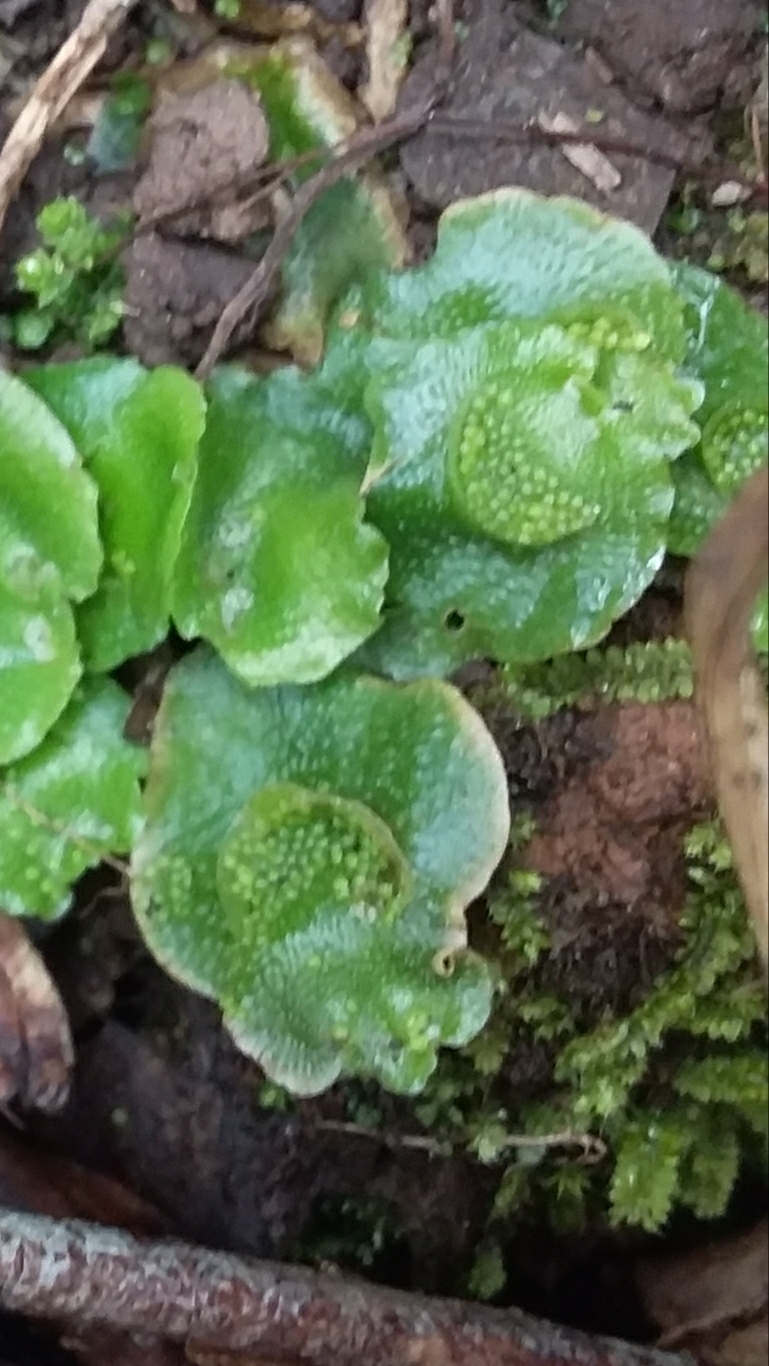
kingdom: Plantae
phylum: Marchantiophyta
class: Marchantiopsida
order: Lunulariales
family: Lunulariaceae
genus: Lunularia
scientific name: Lunularia cruciata
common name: Crescent-cup liverwort
